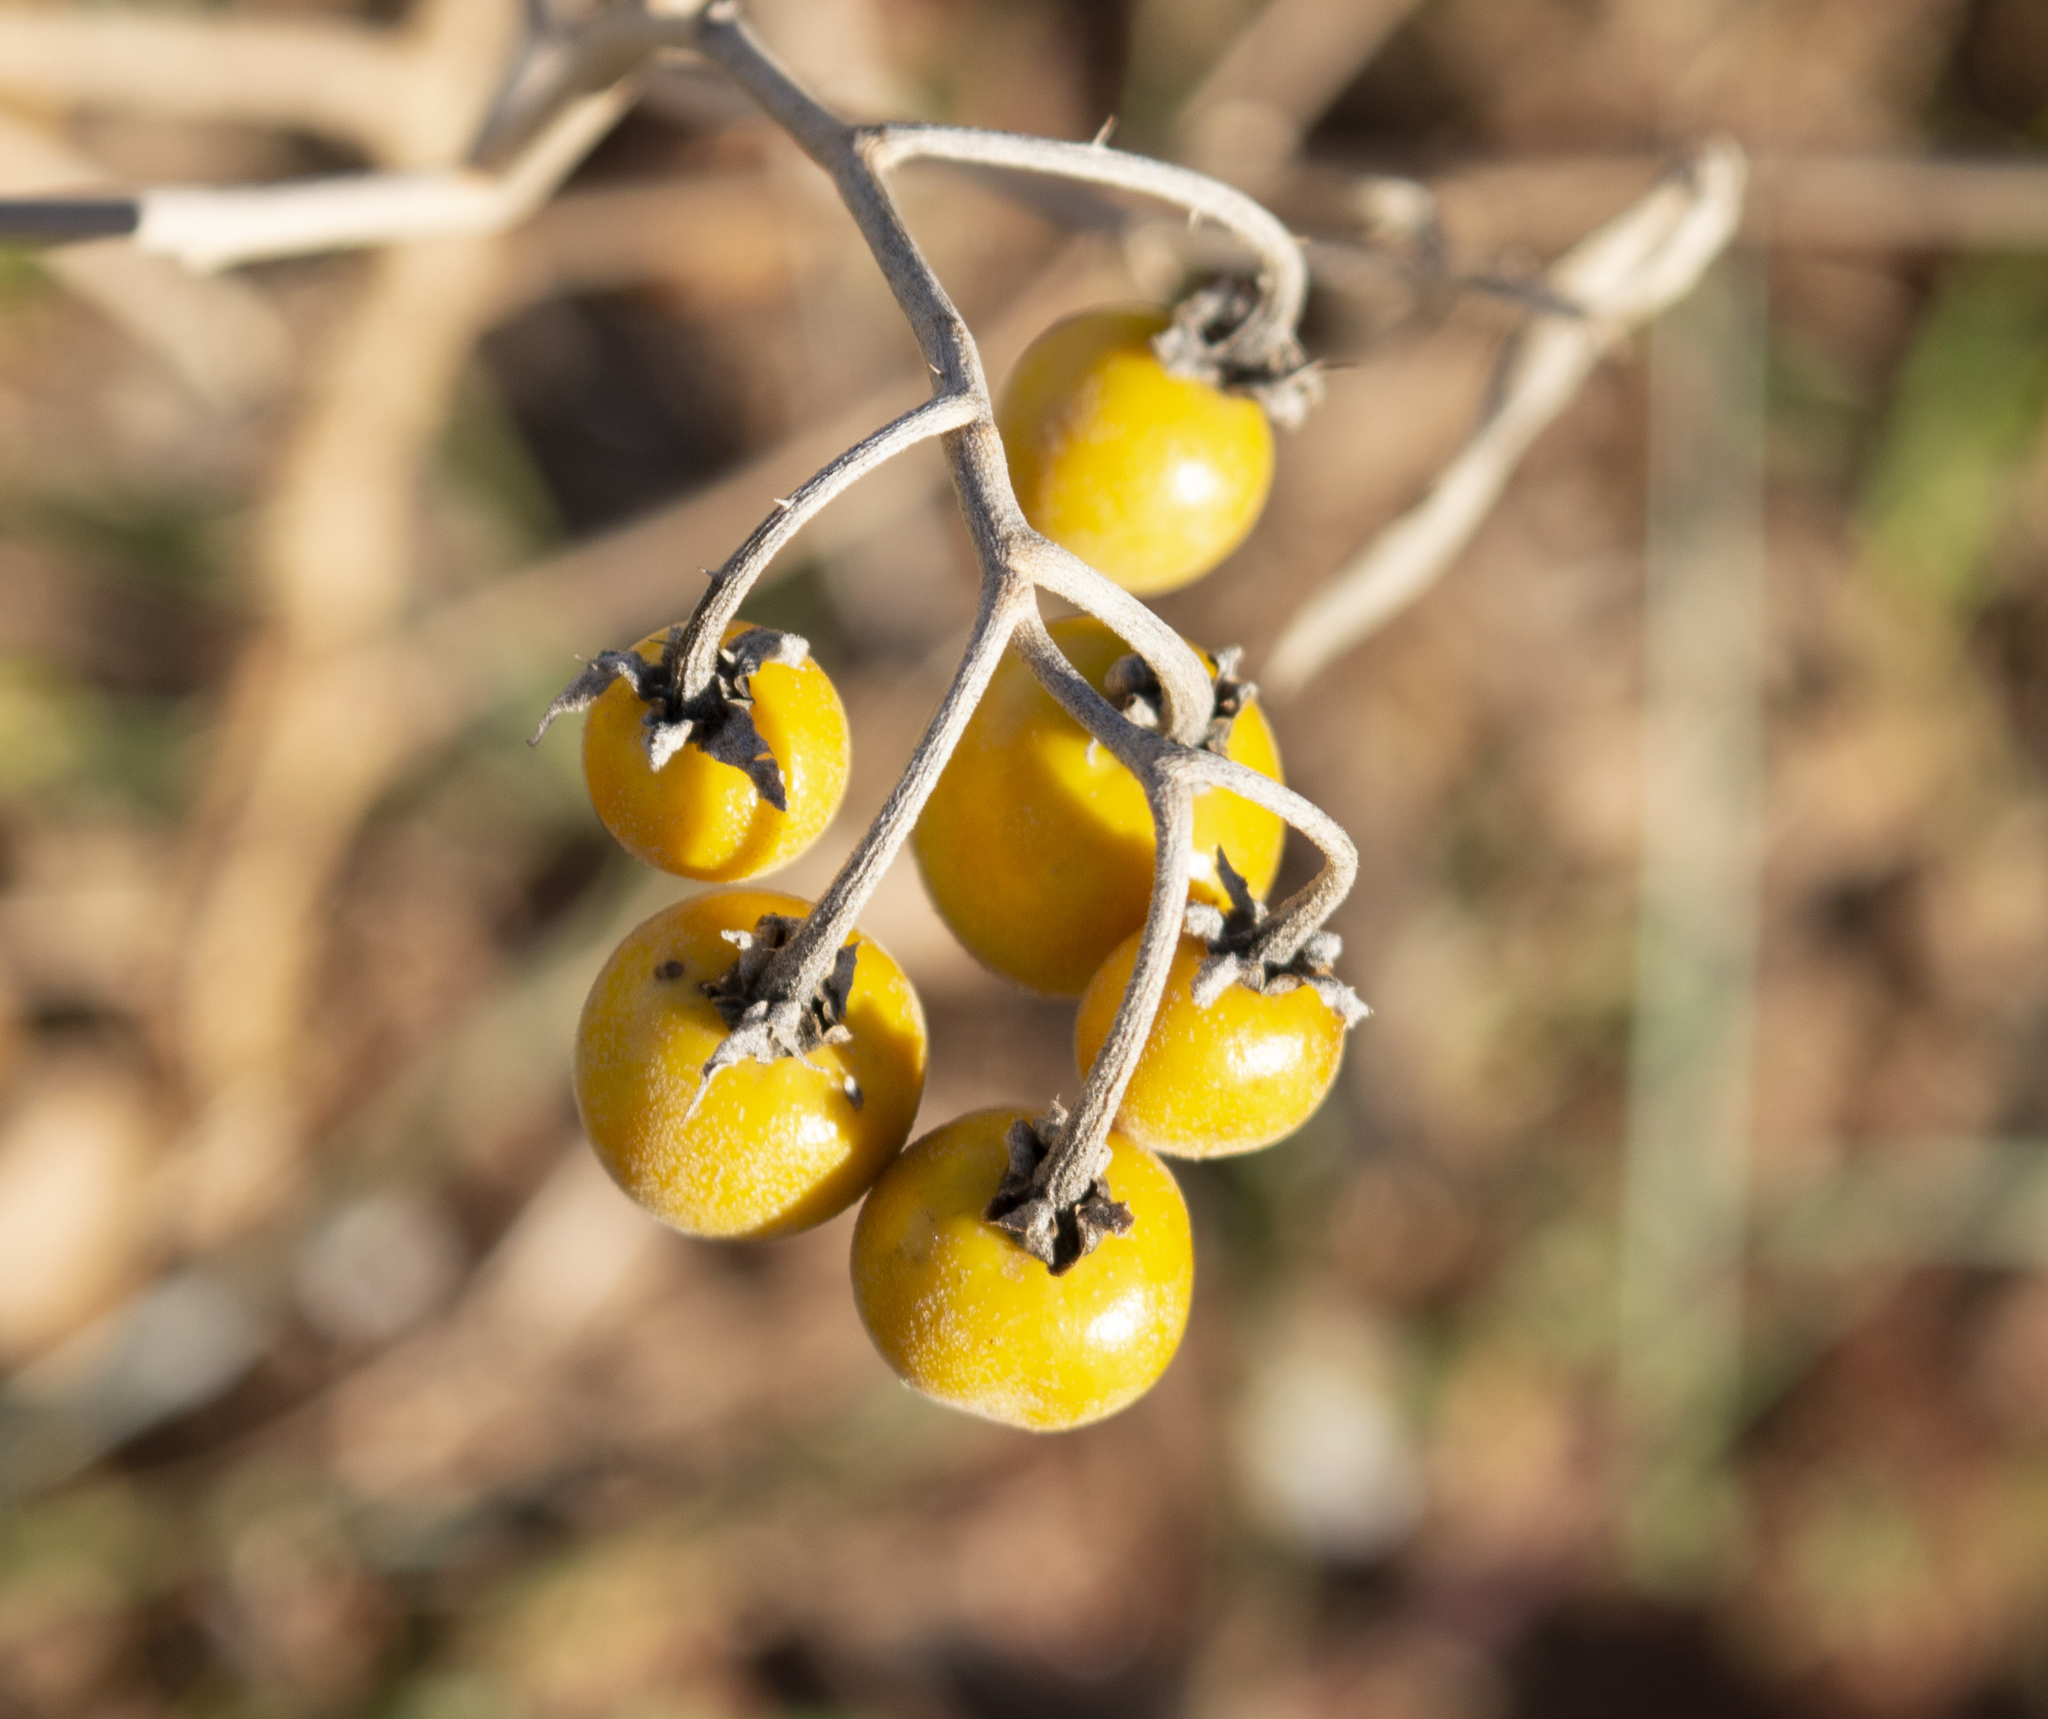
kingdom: Plantae
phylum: Tracheophyta
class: Magnoliopsida
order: Solanales
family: Solanaceae
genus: Solanum
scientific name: Solanum elaeagnifolium
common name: Silverleaf nightshade
